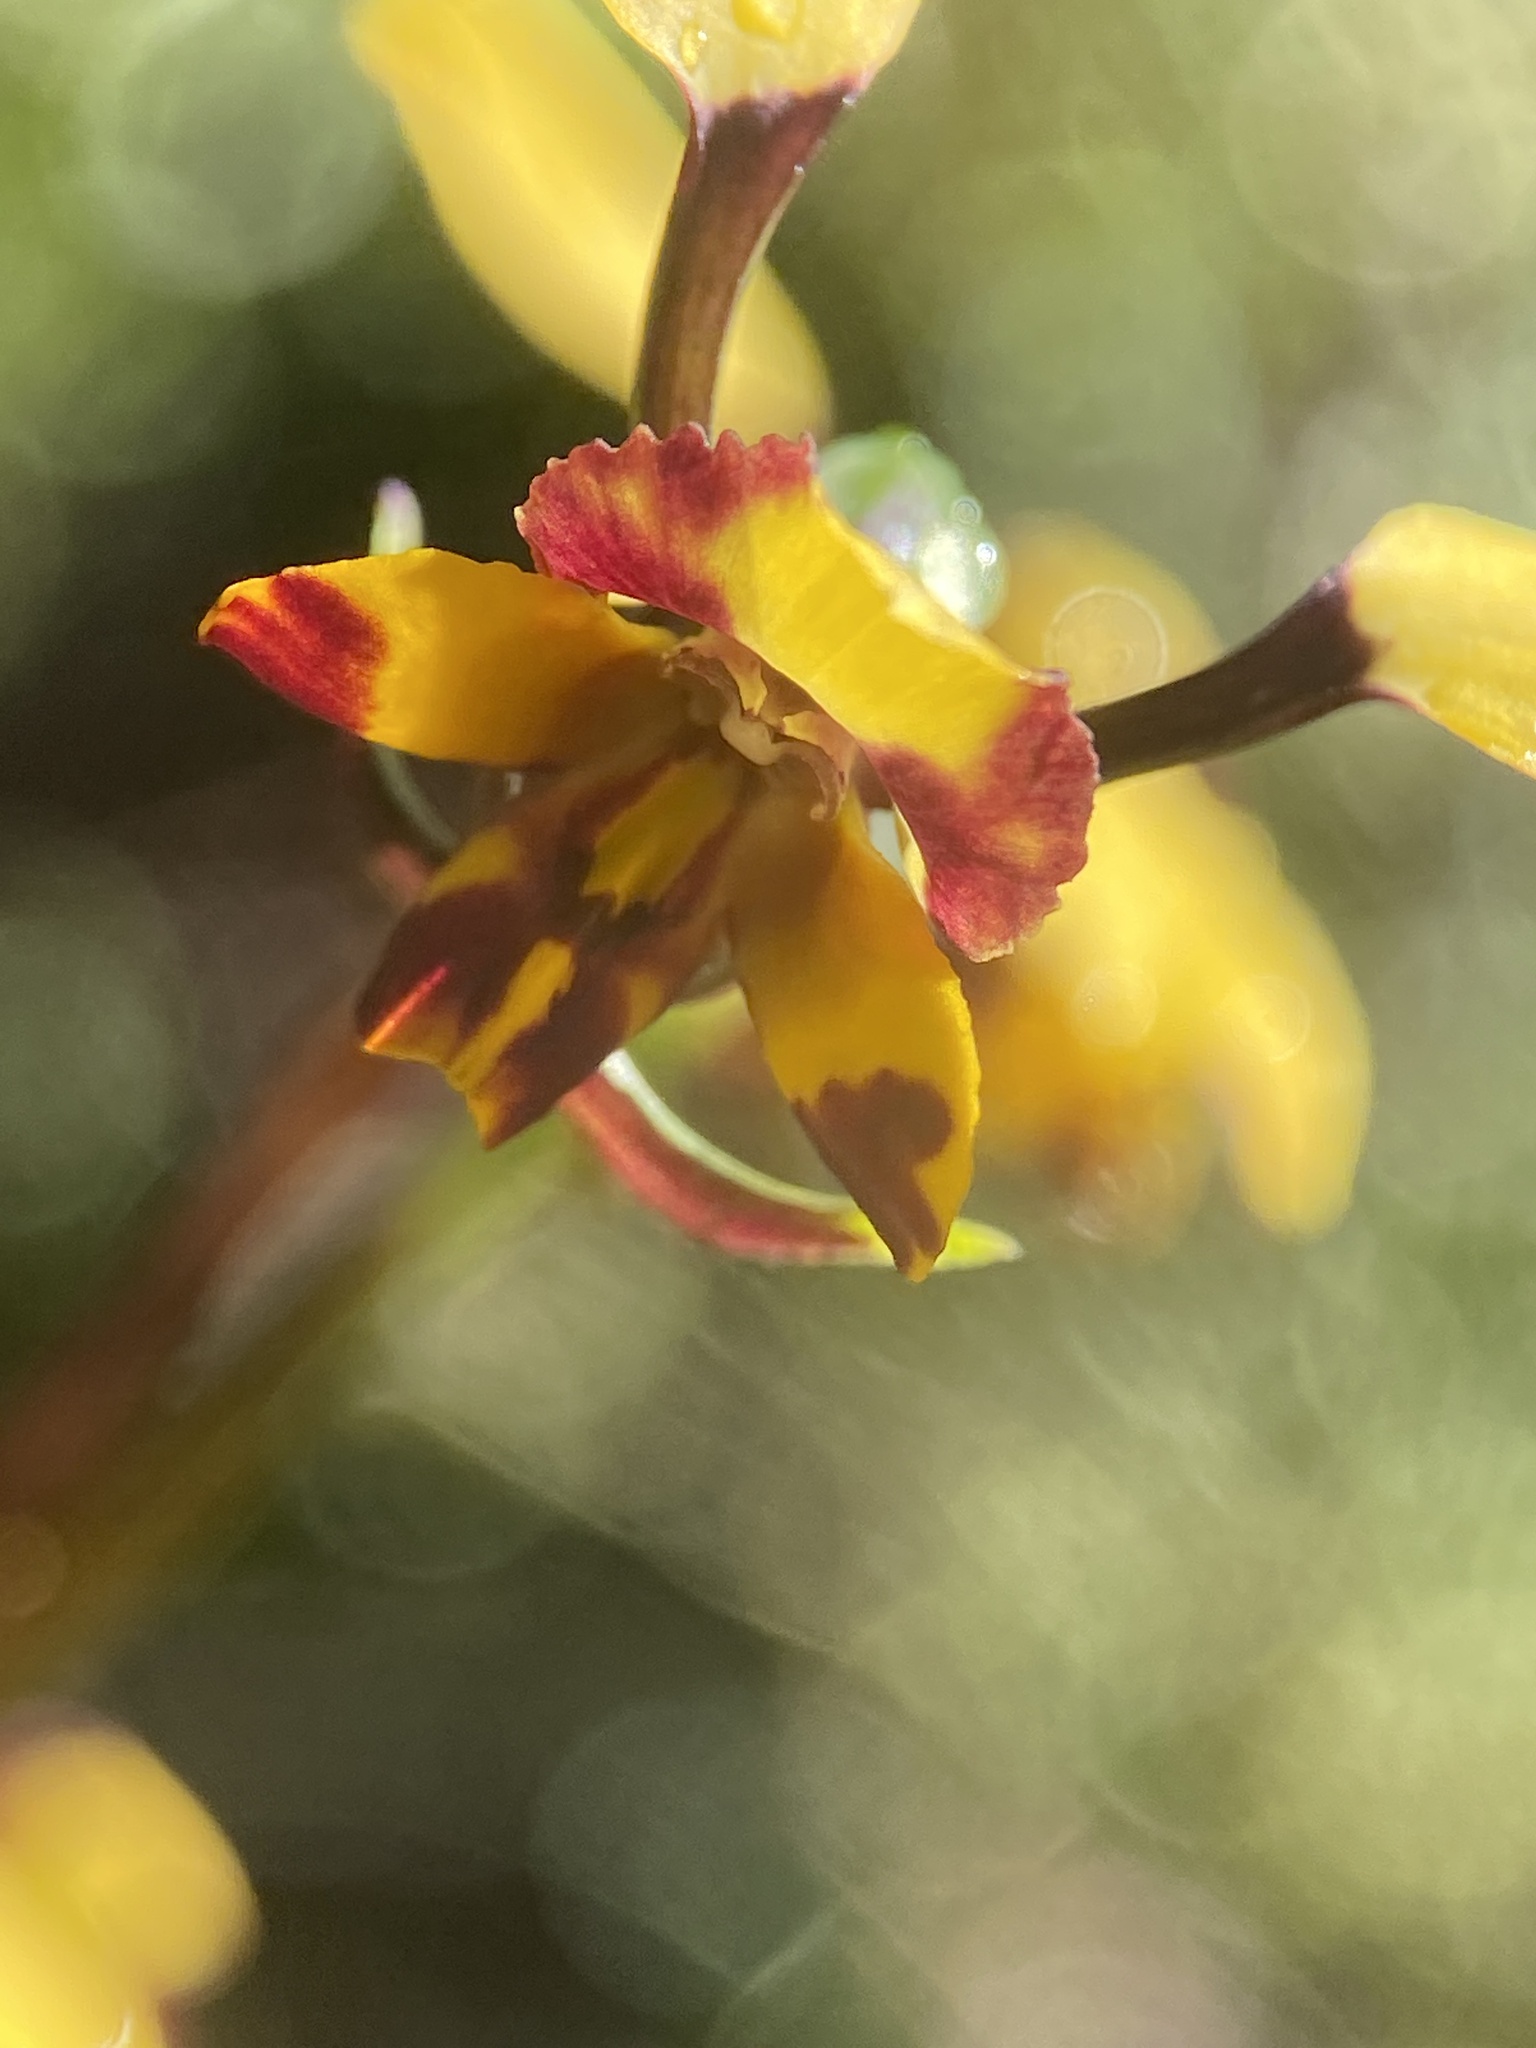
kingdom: Plantae
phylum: Tracheophyta
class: Liliopsida
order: Asparagales
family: Orchidaceae
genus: Diuris
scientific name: Diuris pardina
